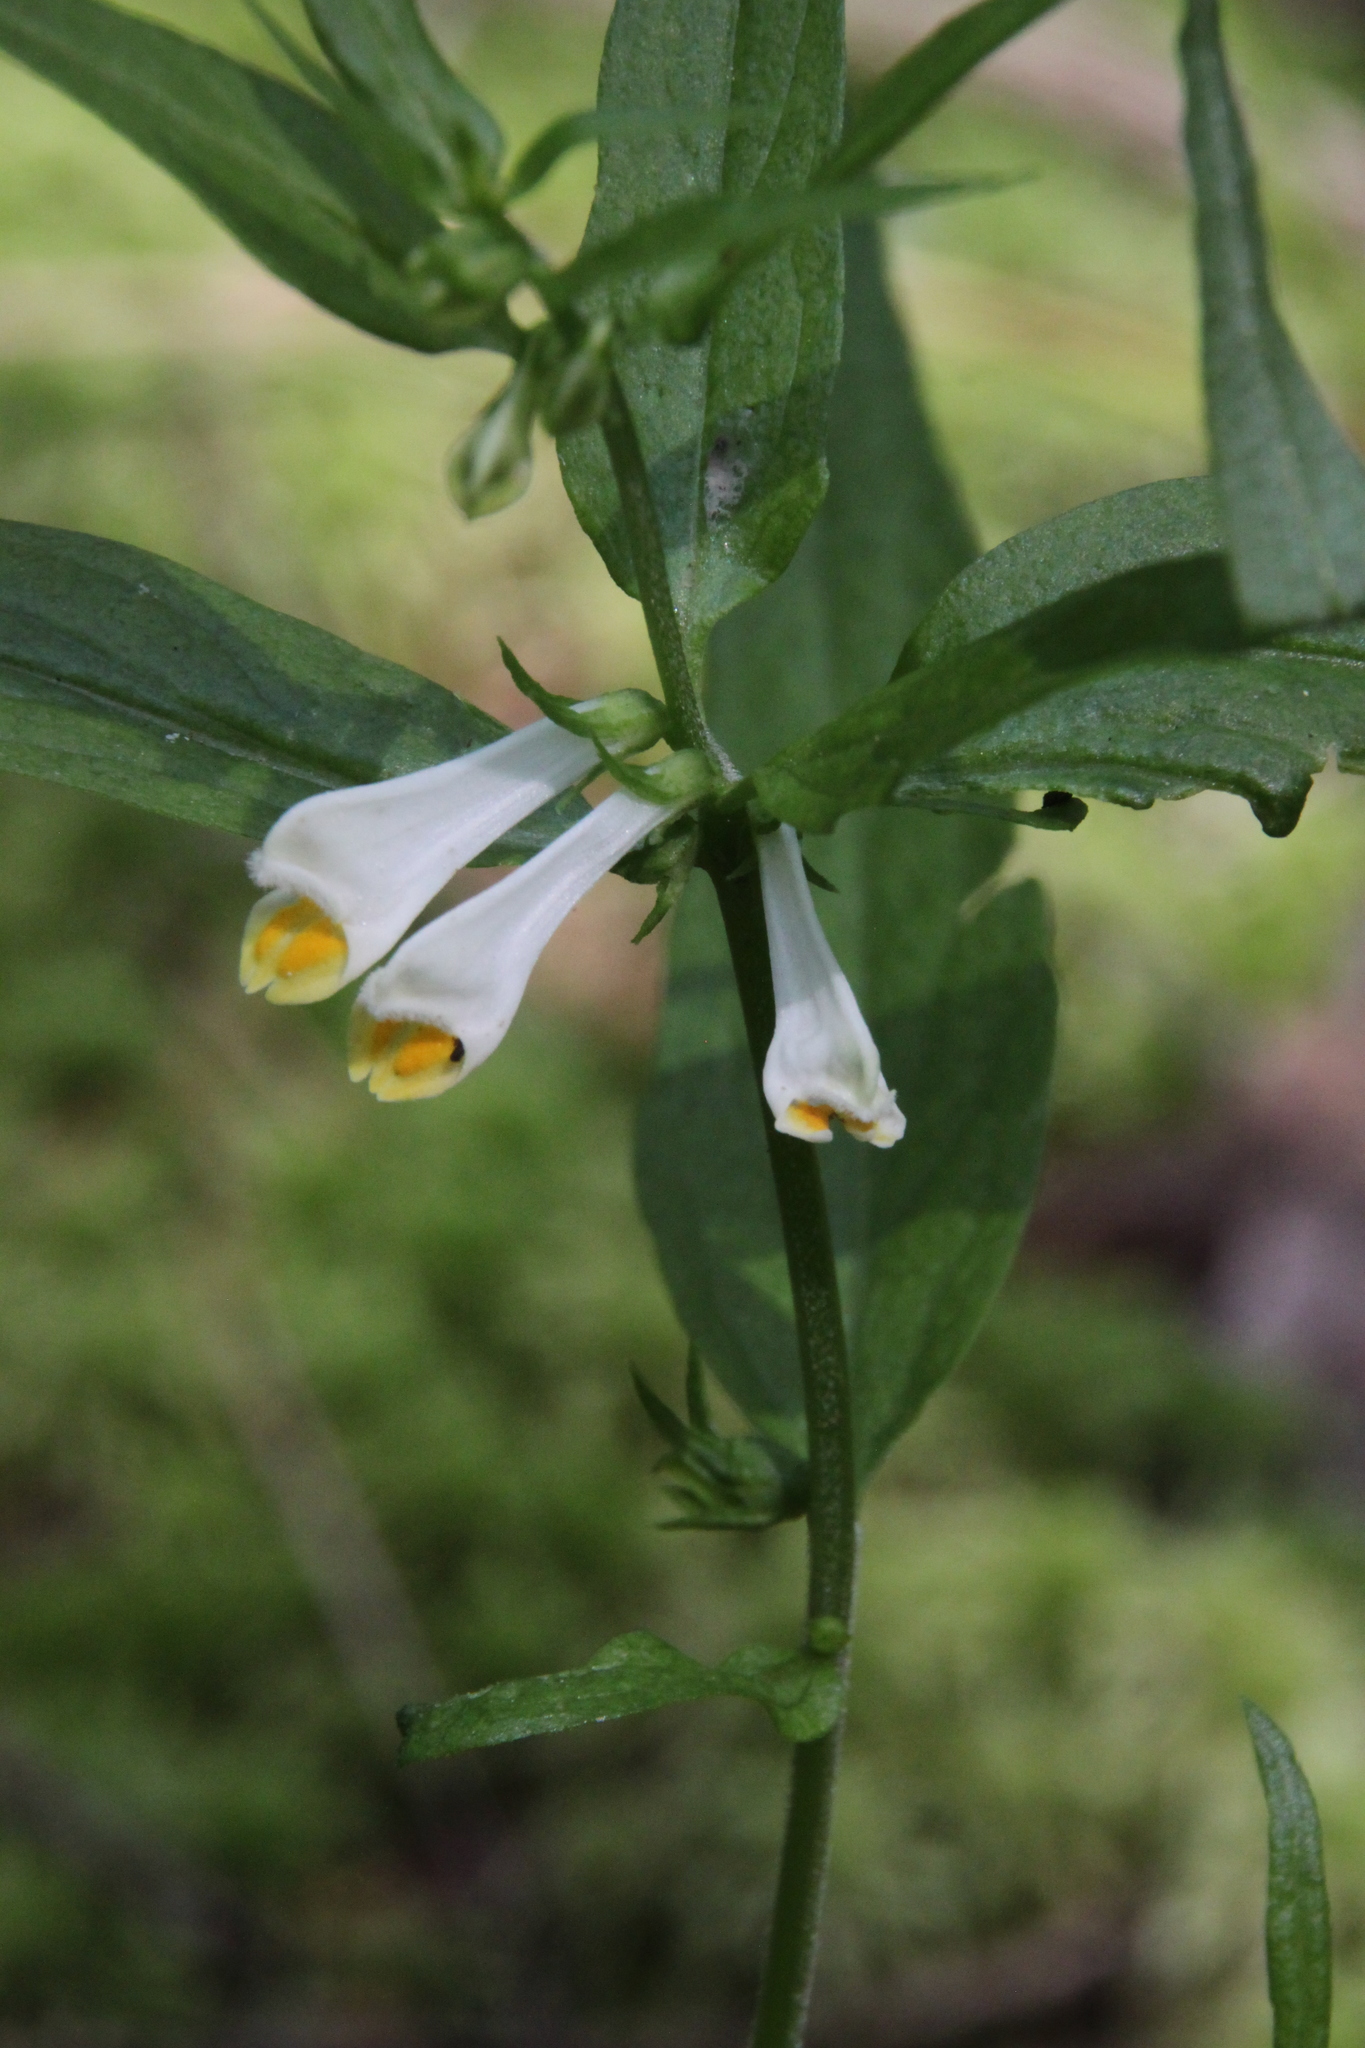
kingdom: Plantae
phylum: Tracheophyta
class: Magnoliopsida
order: Lamiales
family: Orobanchaceae
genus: Melampyrum
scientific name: Melampyrum pratense
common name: Common cow-wheat
